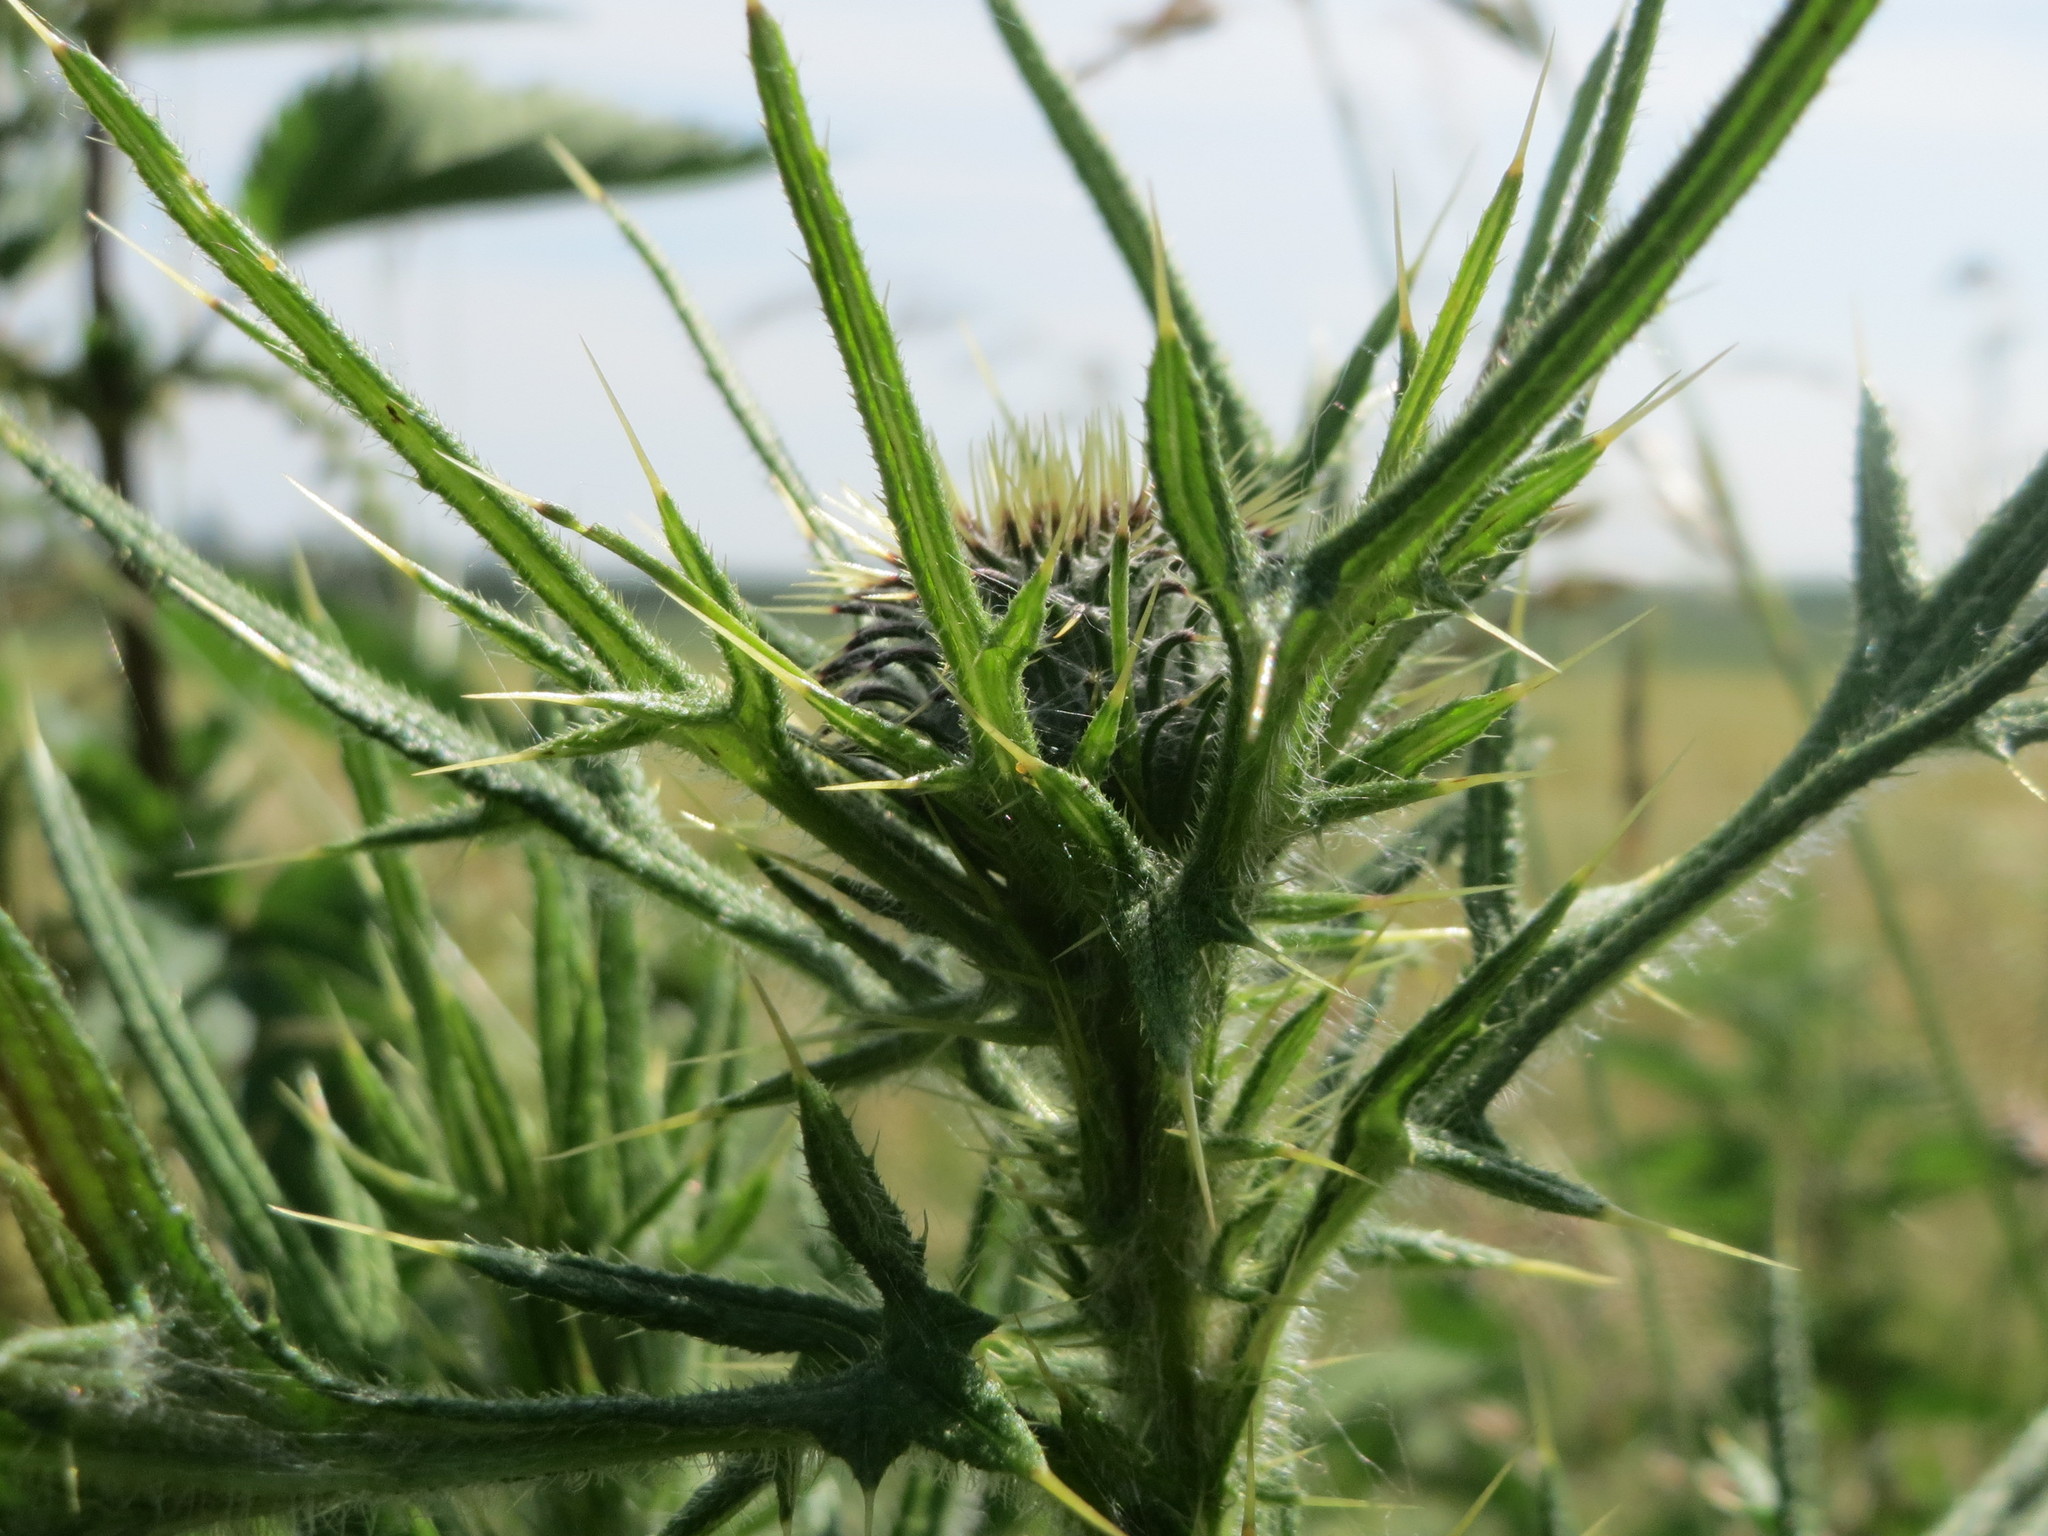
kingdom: Plantae
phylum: Tracheophyta
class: Magnoliopsida
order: Asterales
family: Asteraceae
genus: Cirsium
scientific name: Cirsium vulgare
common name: Bull thistle
